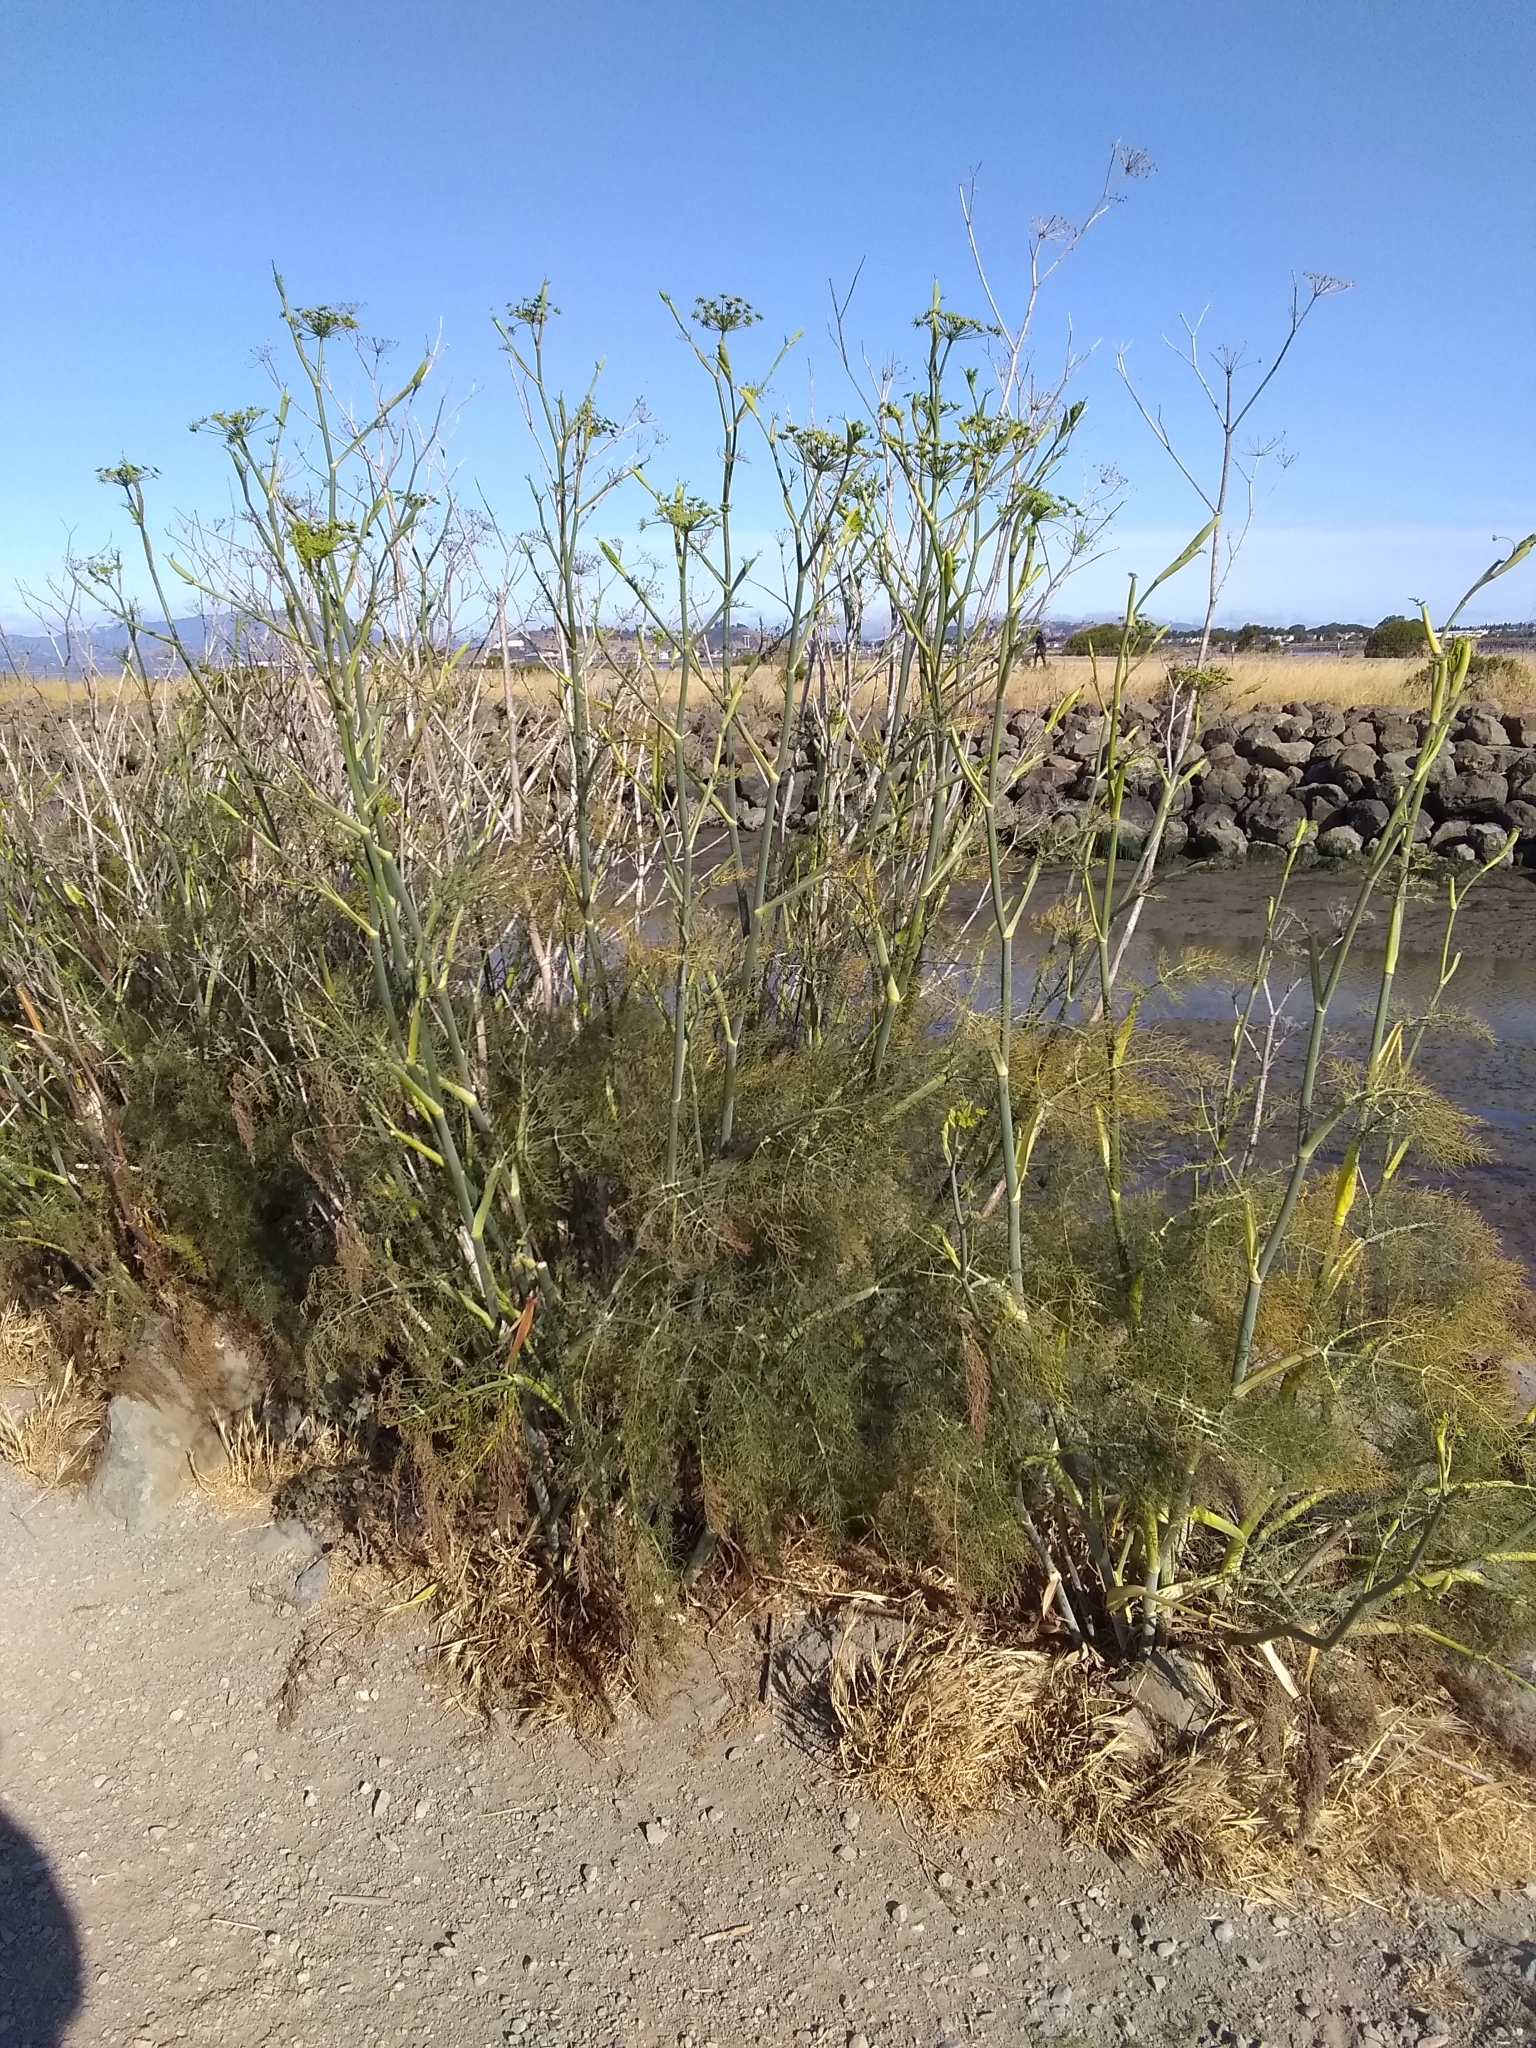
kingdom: Plantae
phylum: Tracheophyta
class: Magnoliopsida
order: Apiales
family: Apiaceae
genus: Foeniculum
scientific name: Foeniculum vulgare
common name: Fennel
